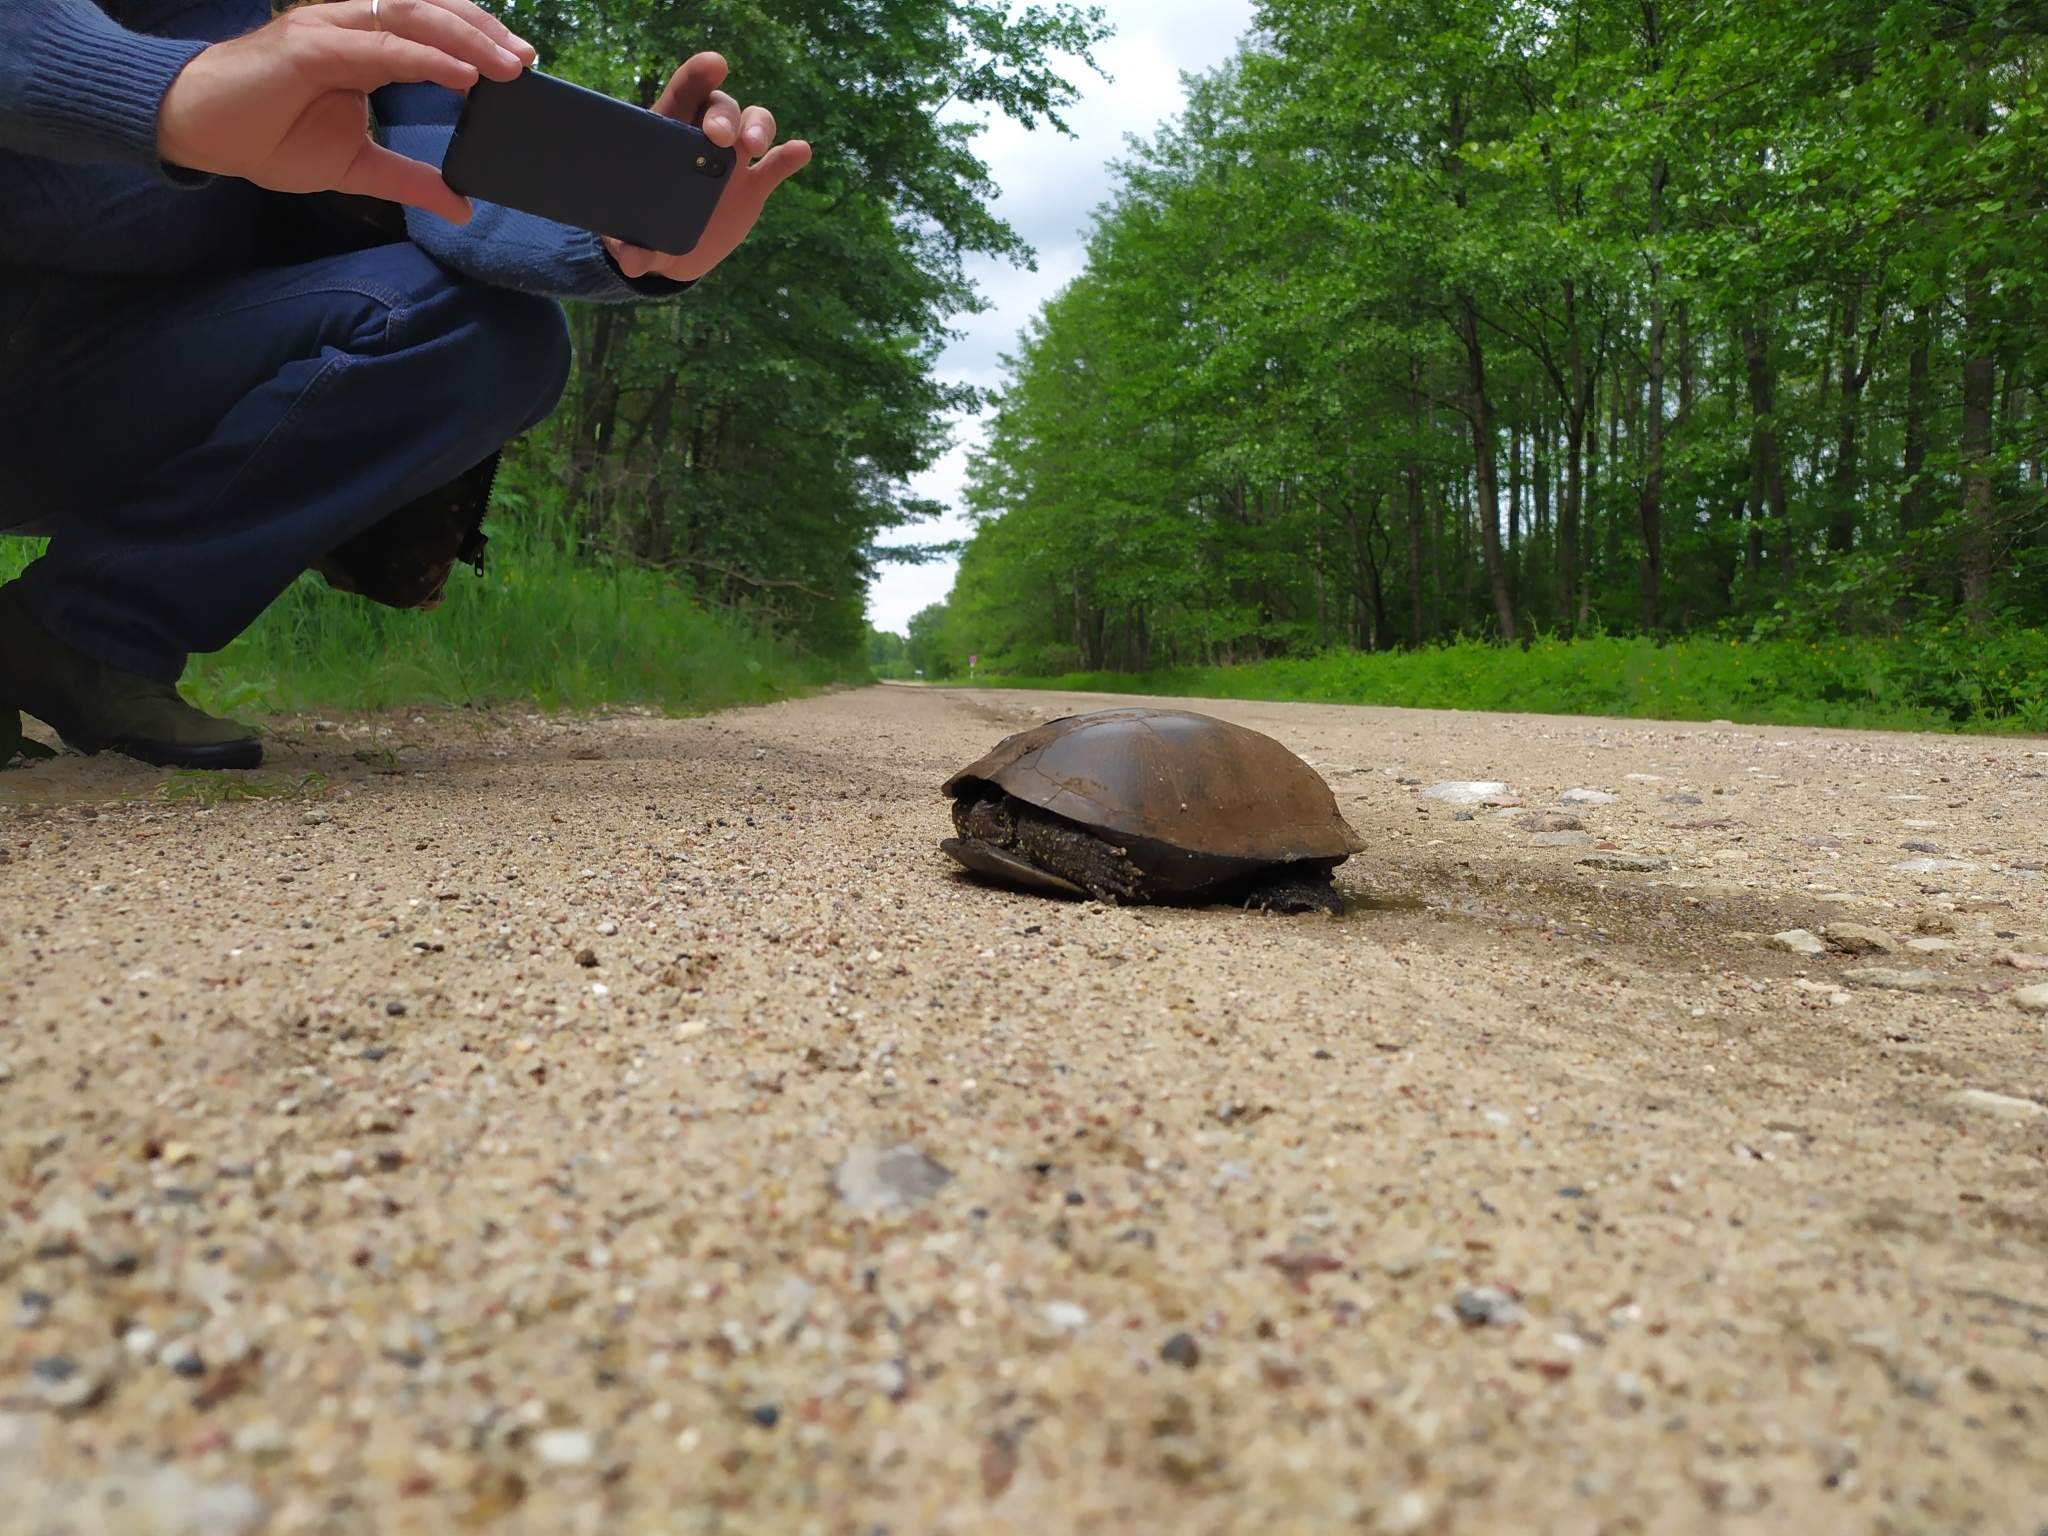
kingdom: Animalia
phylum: Chordata
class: Testudines
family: Emydidae
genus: Emys
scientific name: Emys orbicularis
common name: European pond turtle
